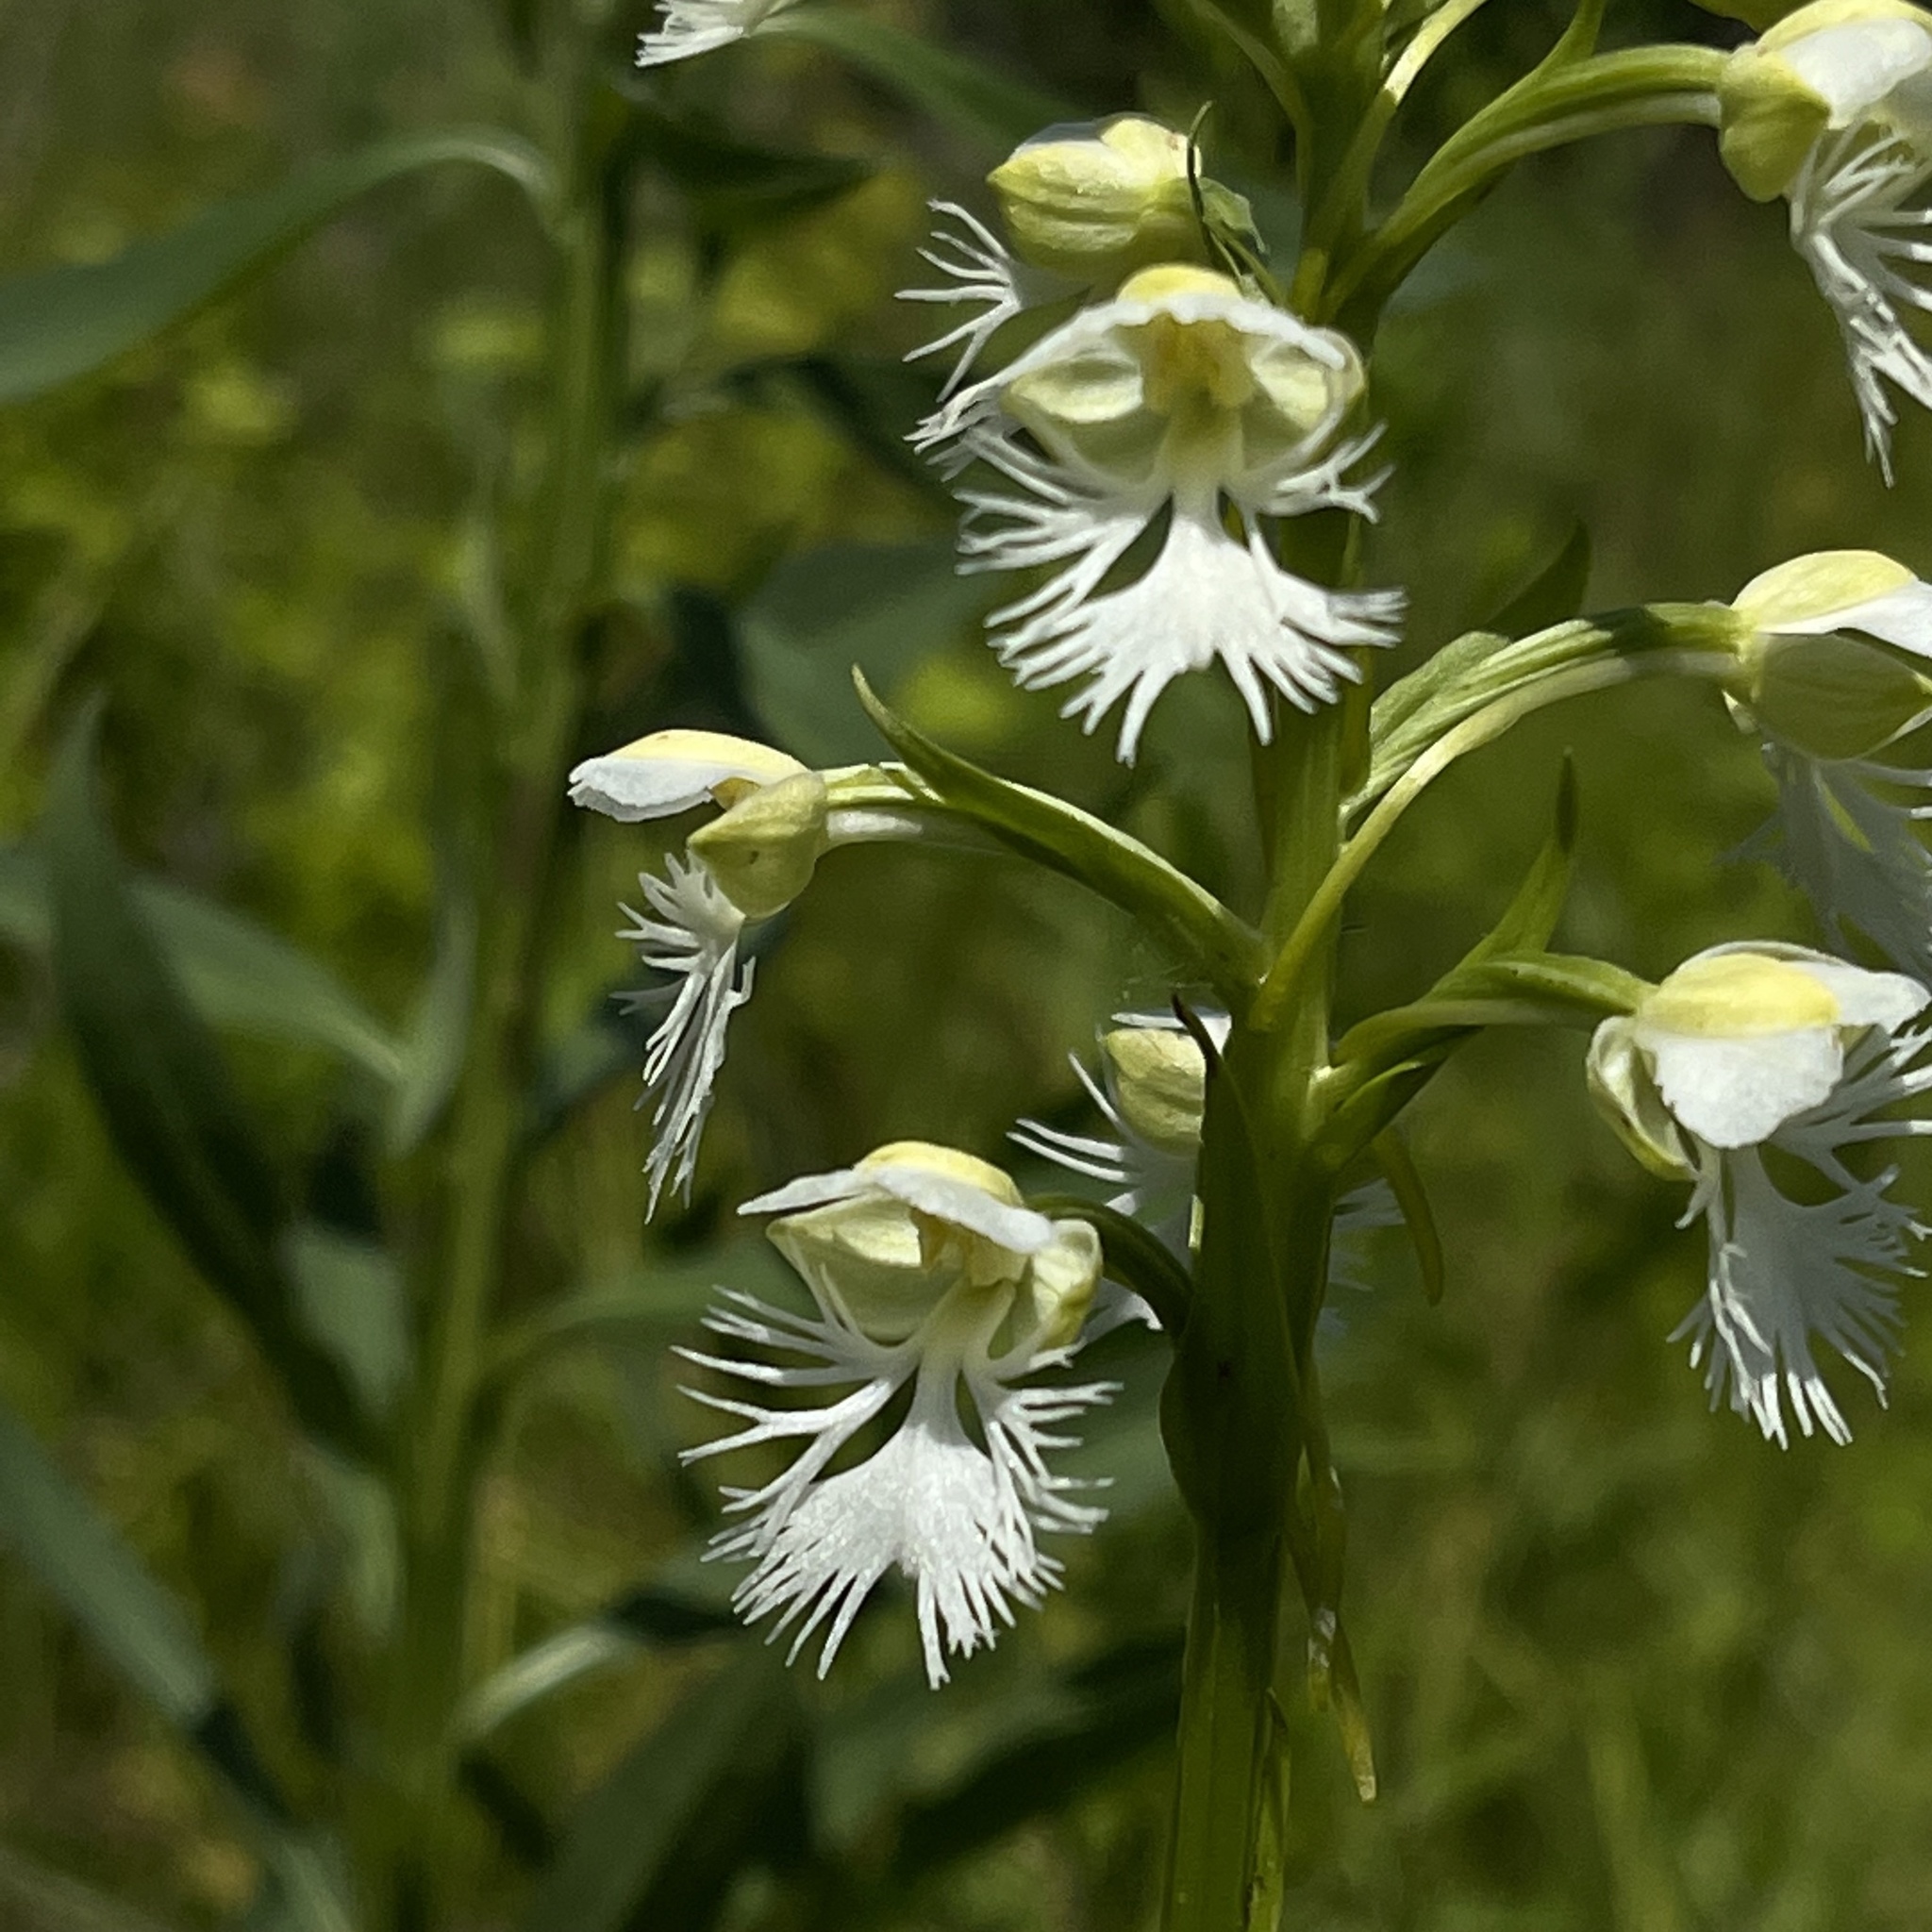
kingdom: Plantae
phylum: Tracheophyta
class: Liliopsida
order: Asparagales
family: Orchidaceae
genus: Platanthera
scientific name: Platanthera leucophaea
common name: Eastern prairie white-fringed orchid
